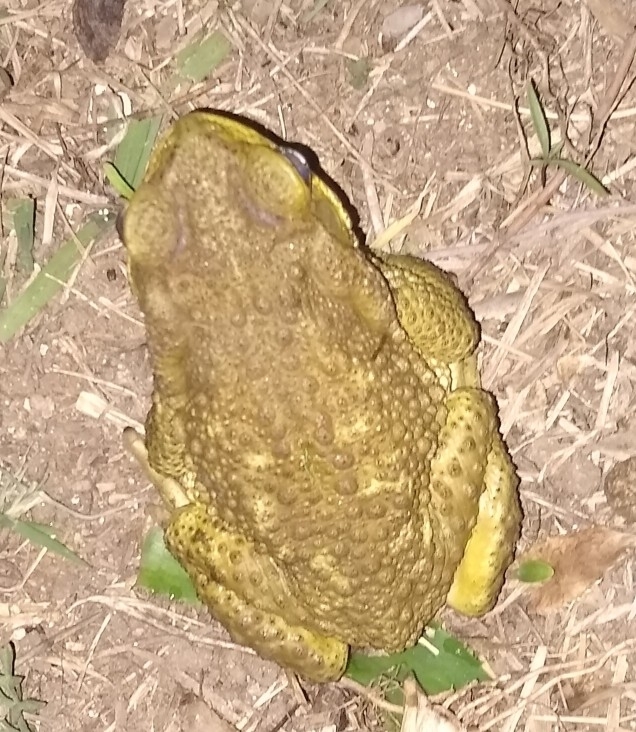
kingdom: Animalia
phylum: Chordata
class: Amphibia
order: Anura
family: Bufonidae
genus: Rhinella
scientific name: Rhinella arenarum
